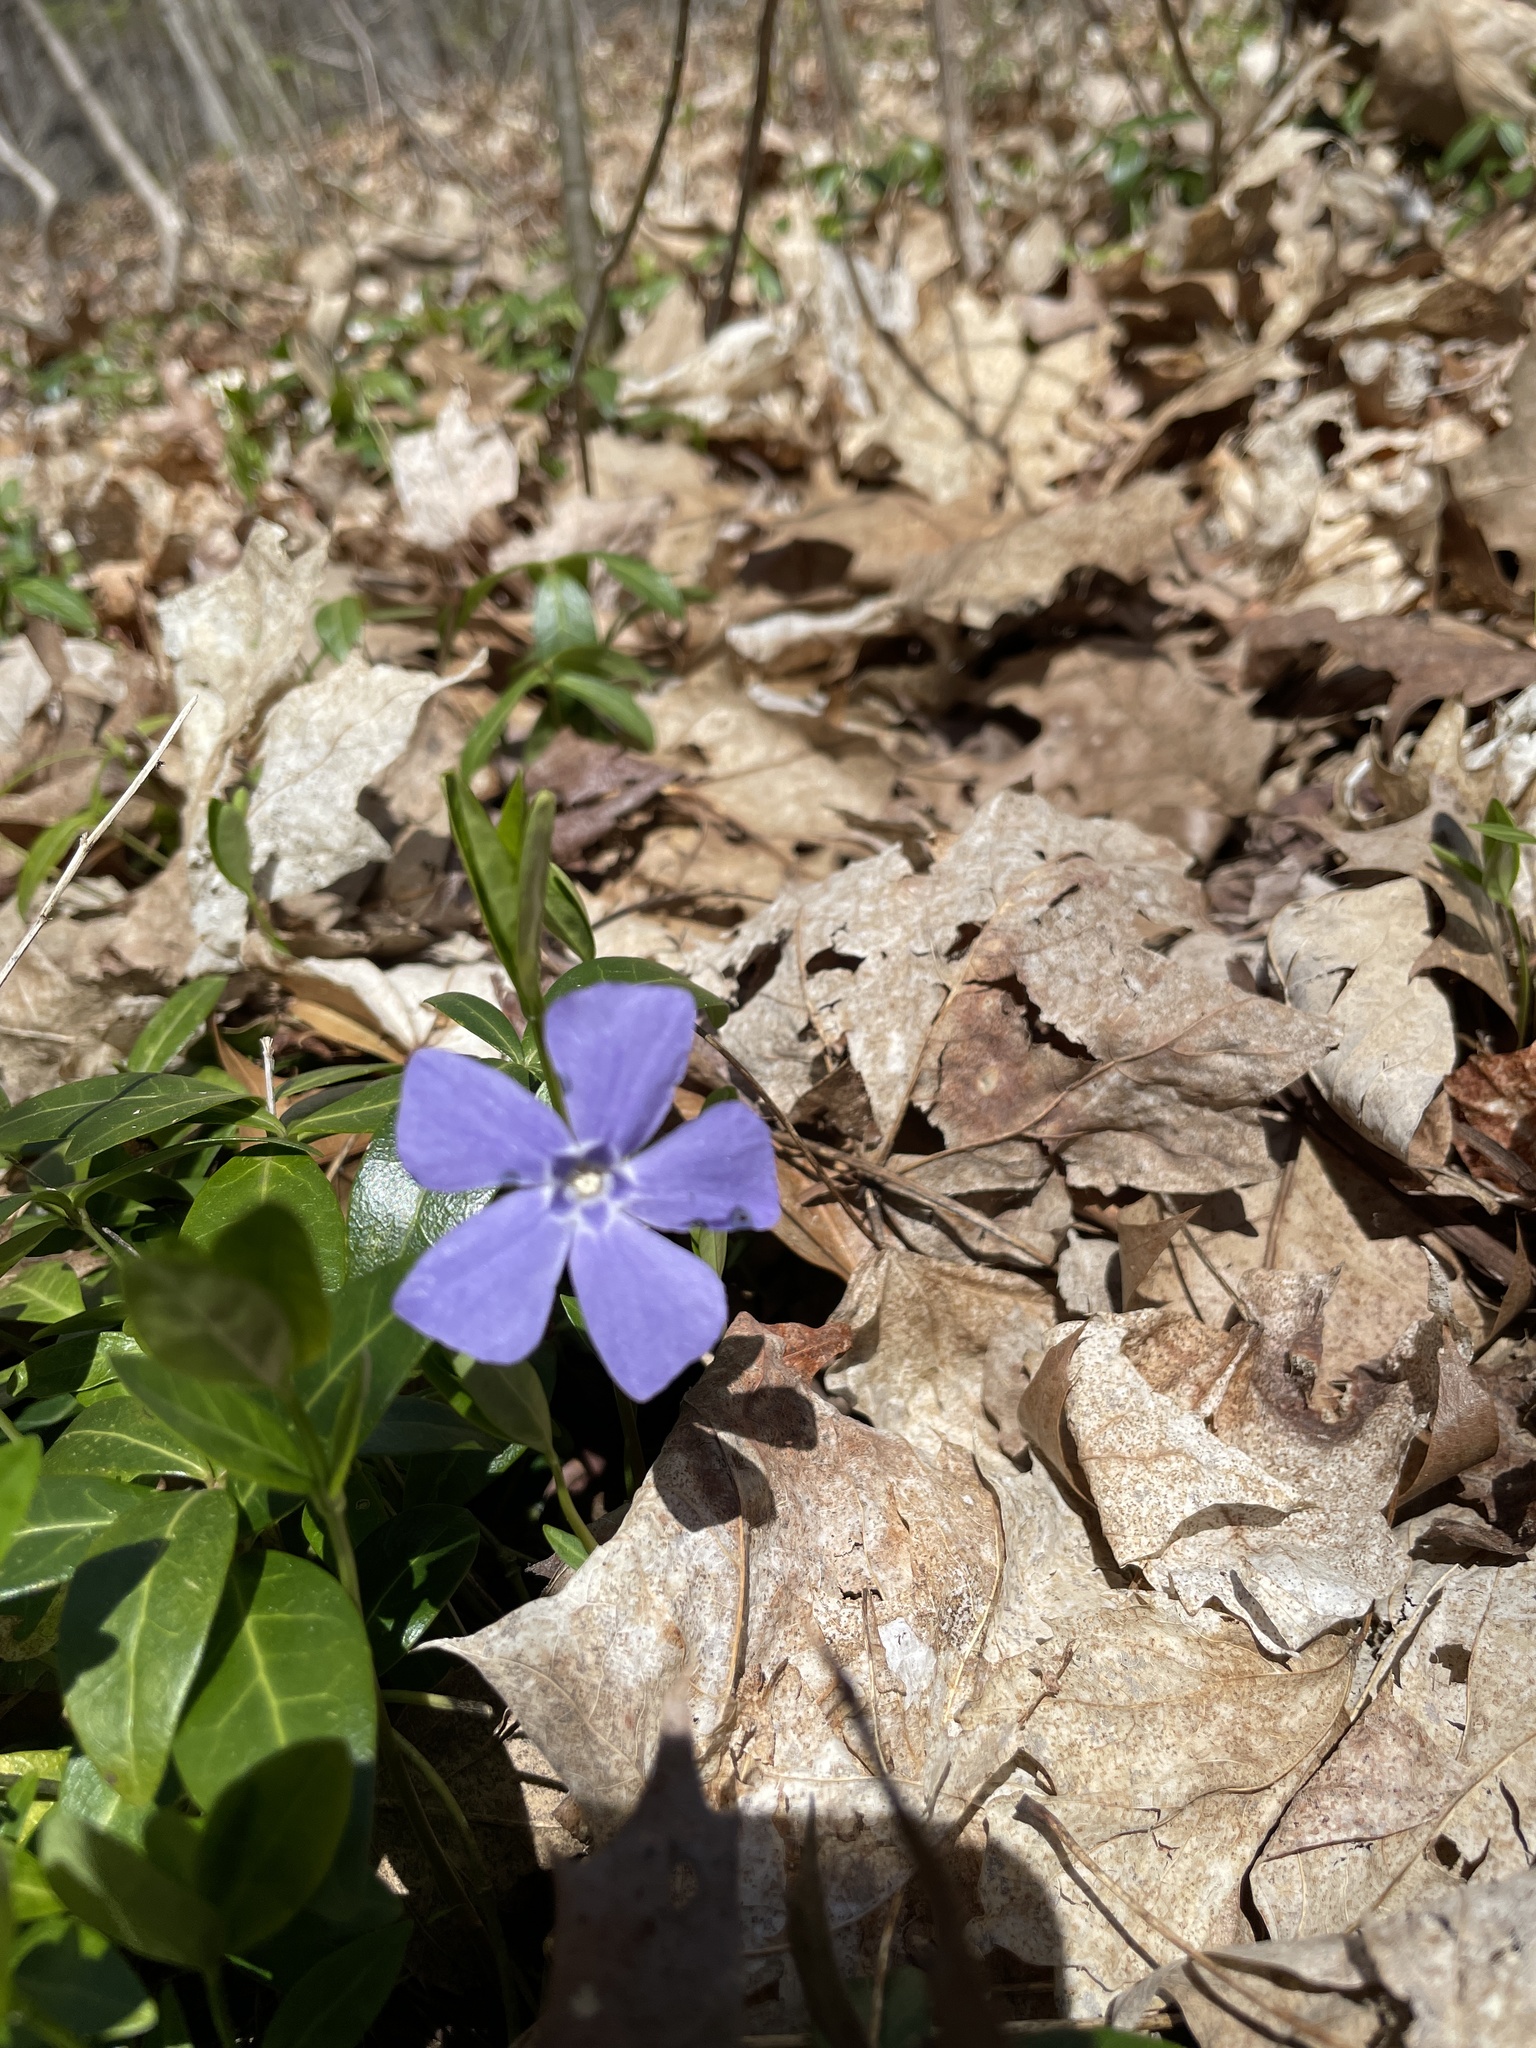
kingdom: Plantae
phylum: Tracheophyta
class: Magnoliopsida
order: Gentianales
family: Apocynaceae
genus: Vinca
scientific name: Vinca minor
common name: Lesser periwinkle
